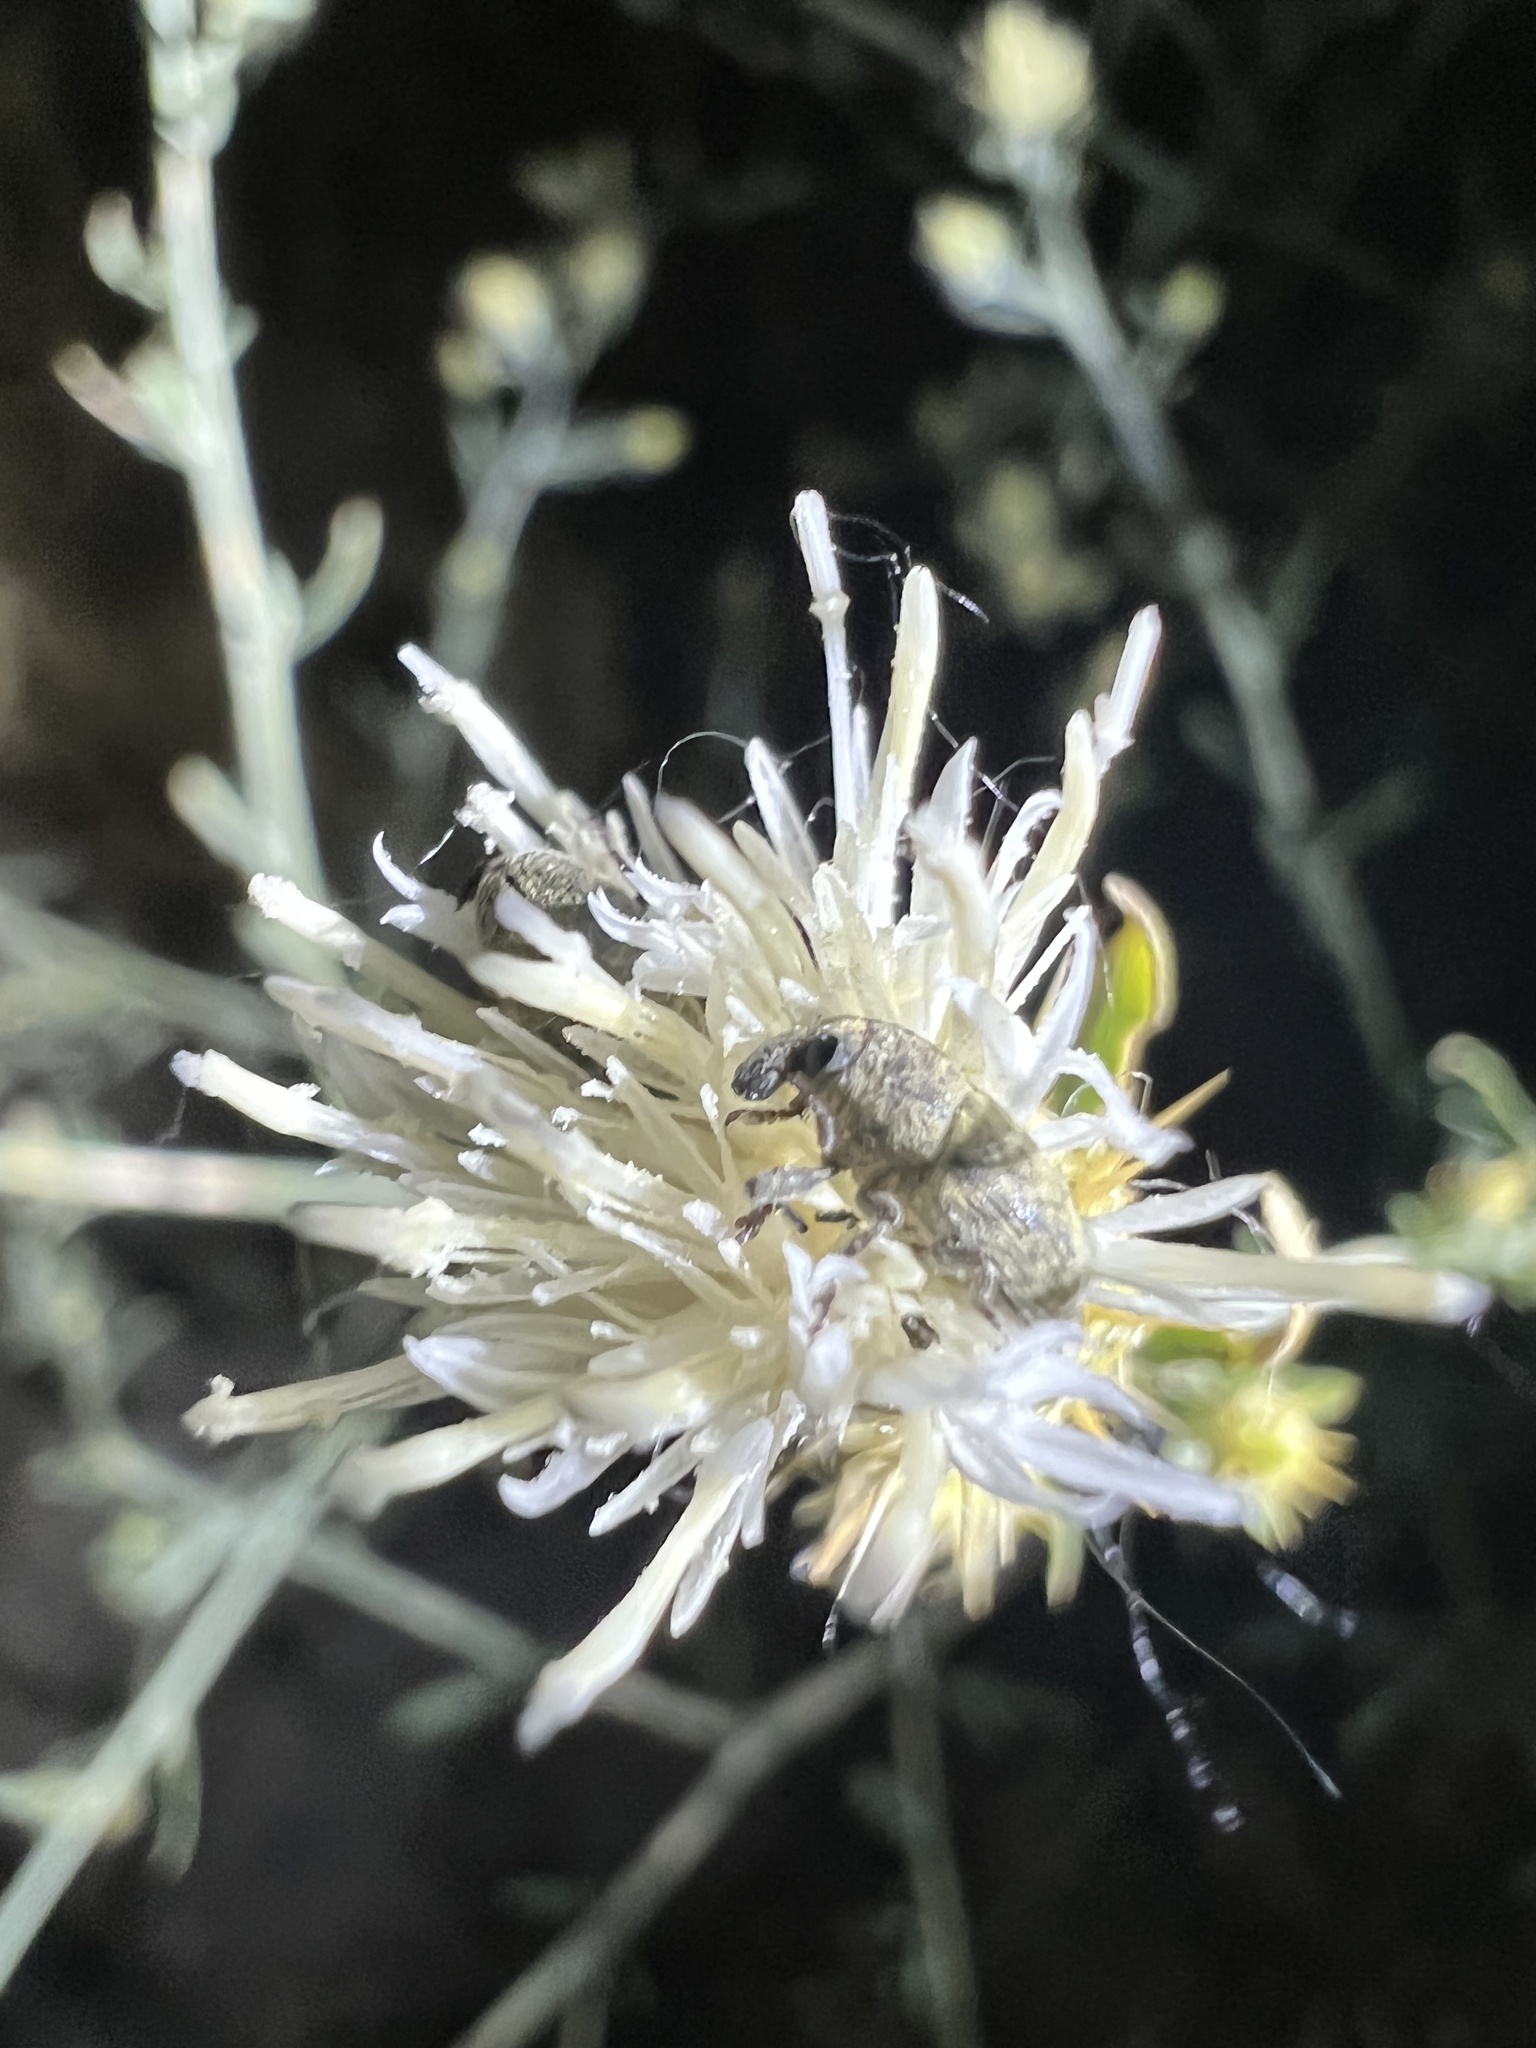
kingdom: Animalia
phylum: Arthropoda
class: Insecta
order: Coleoptera
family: Curculionidae
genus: Larinus
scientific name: Larinus obtusus
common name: Weevil
